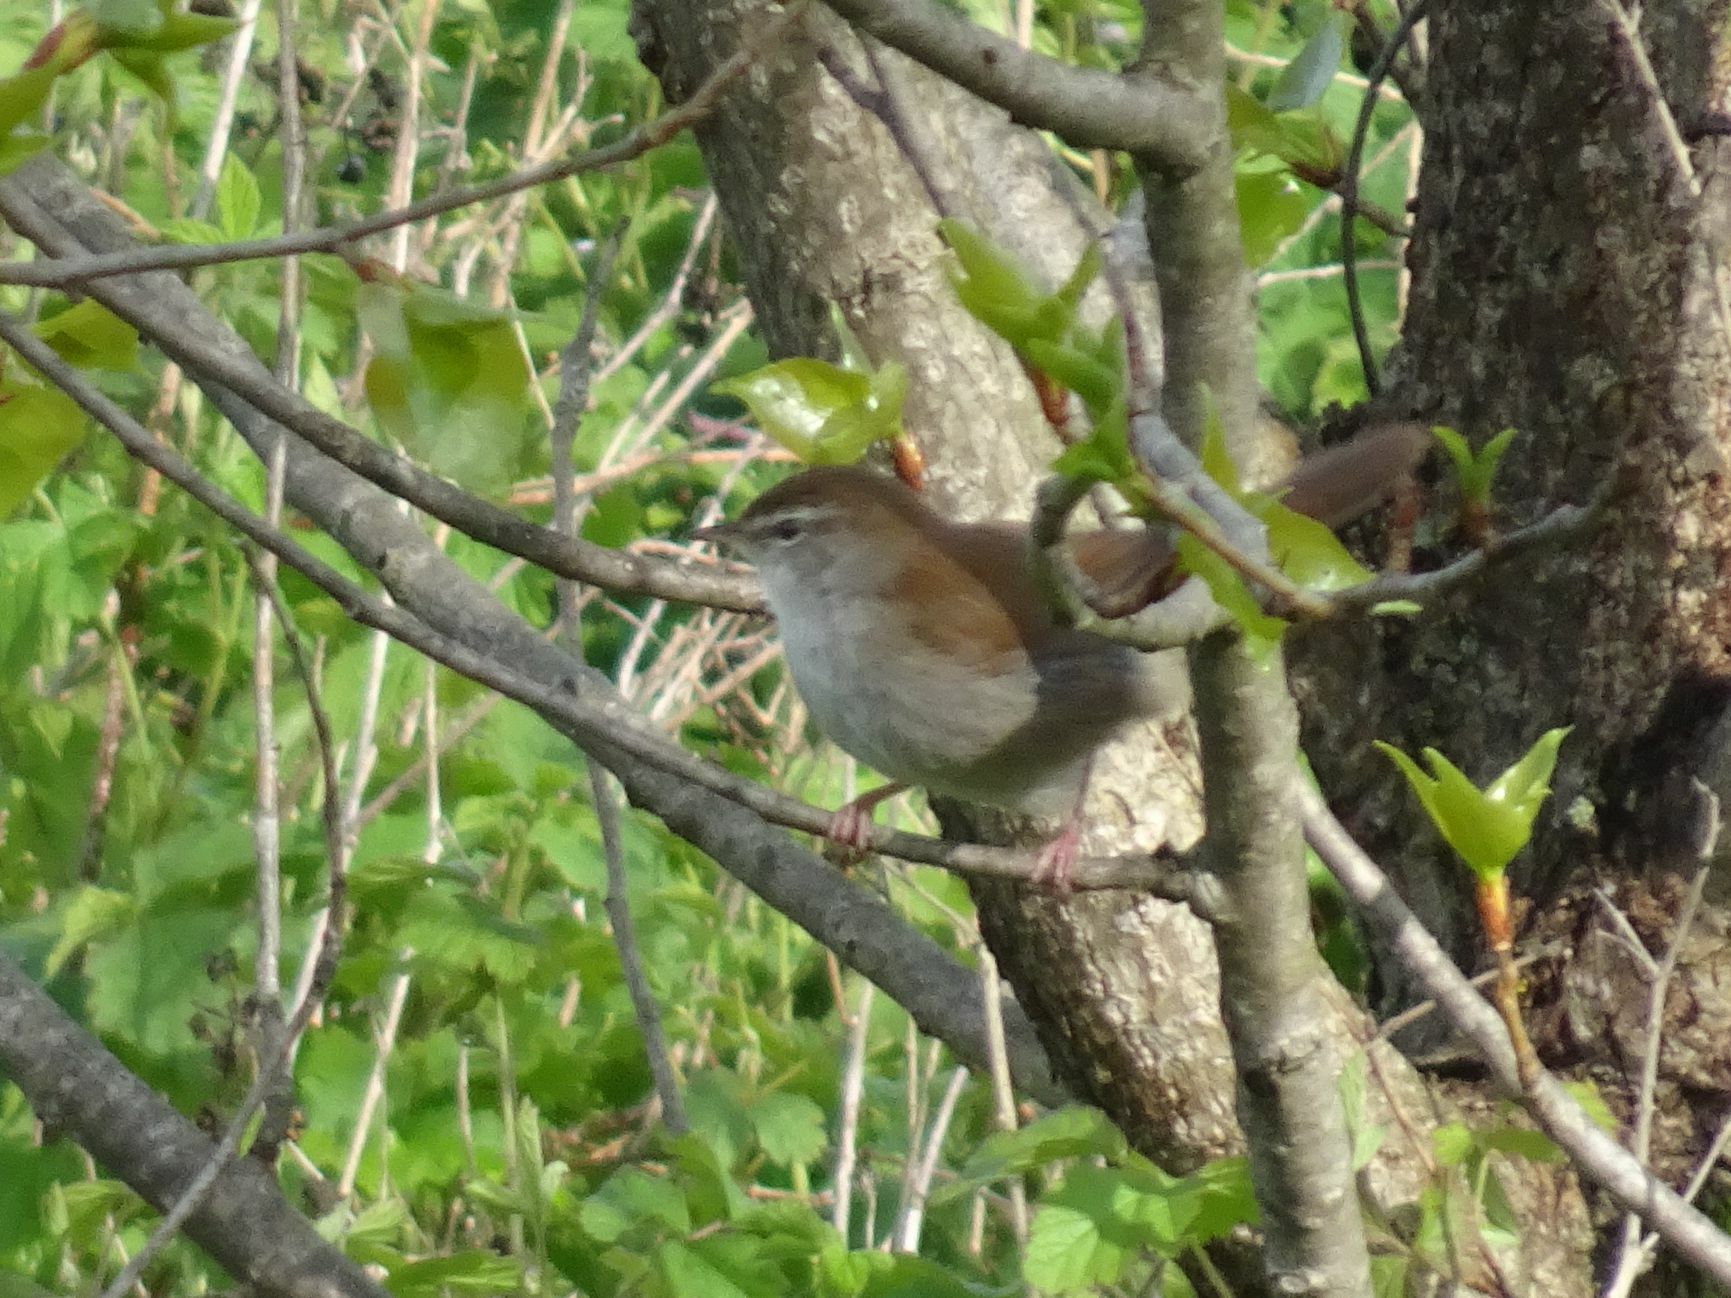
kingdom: Animalia
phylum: Chordata
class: Aves
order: Passeriformes
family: Cettiidae
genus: Cettia
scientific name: Cettia cetti
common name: Cetti's warbler
